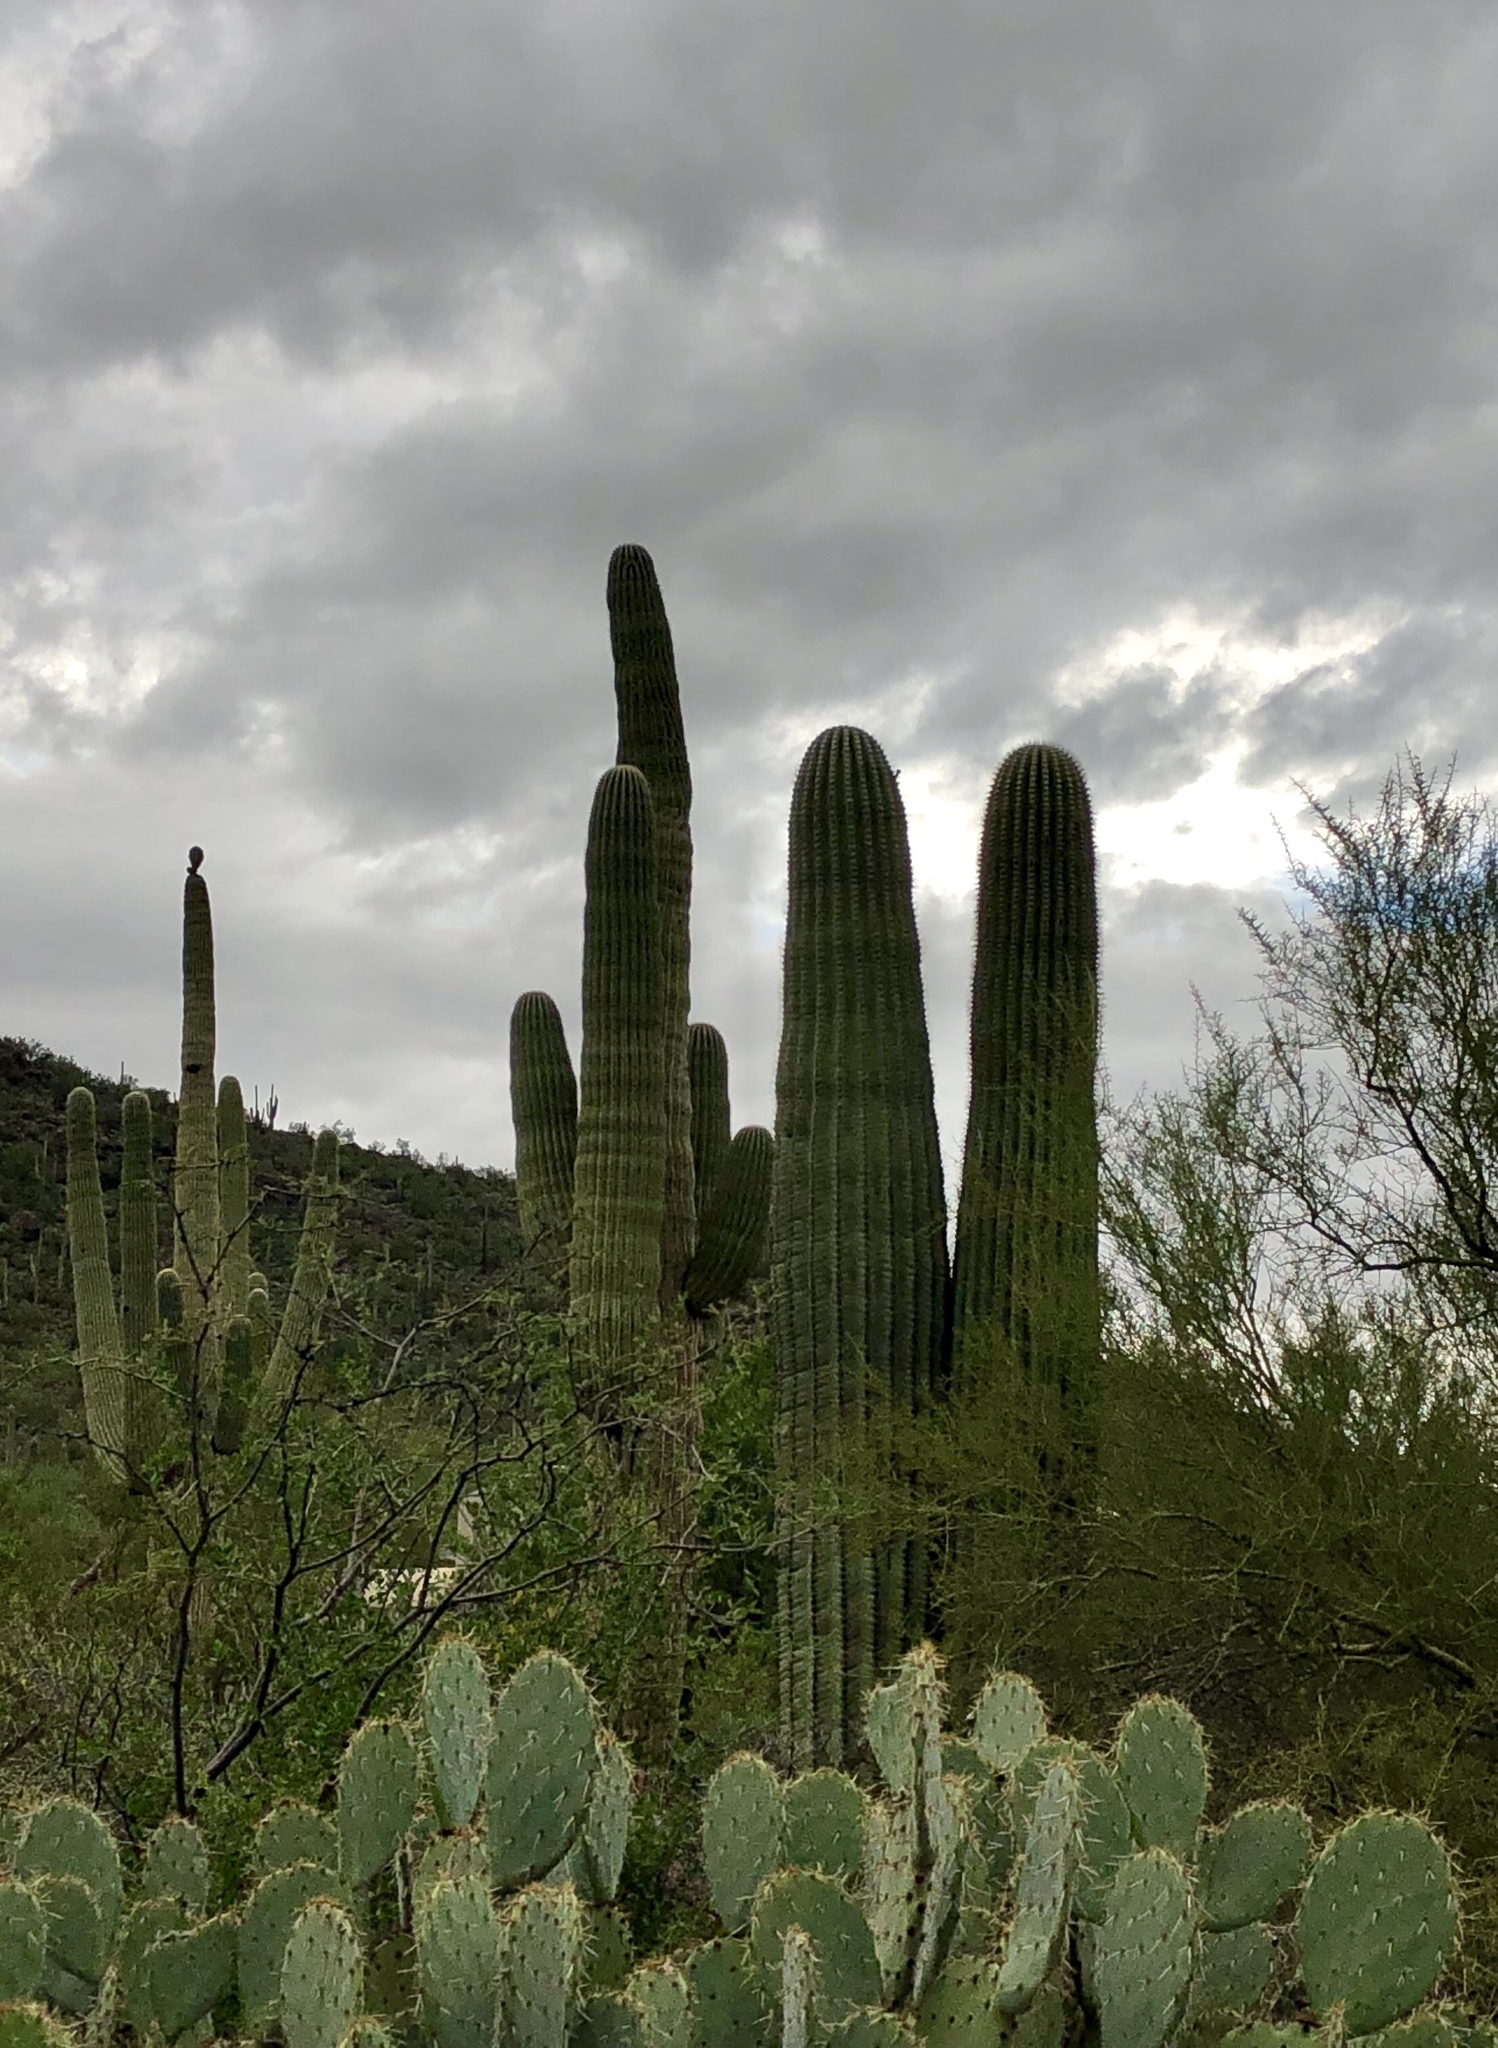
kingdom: Plantae
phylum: Tracheophyta
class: Magnoliopsida
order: Caryophyllales
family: Cactaceae
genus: Carnegiea
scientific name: Carnegiea gigantea
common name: Saguaro
